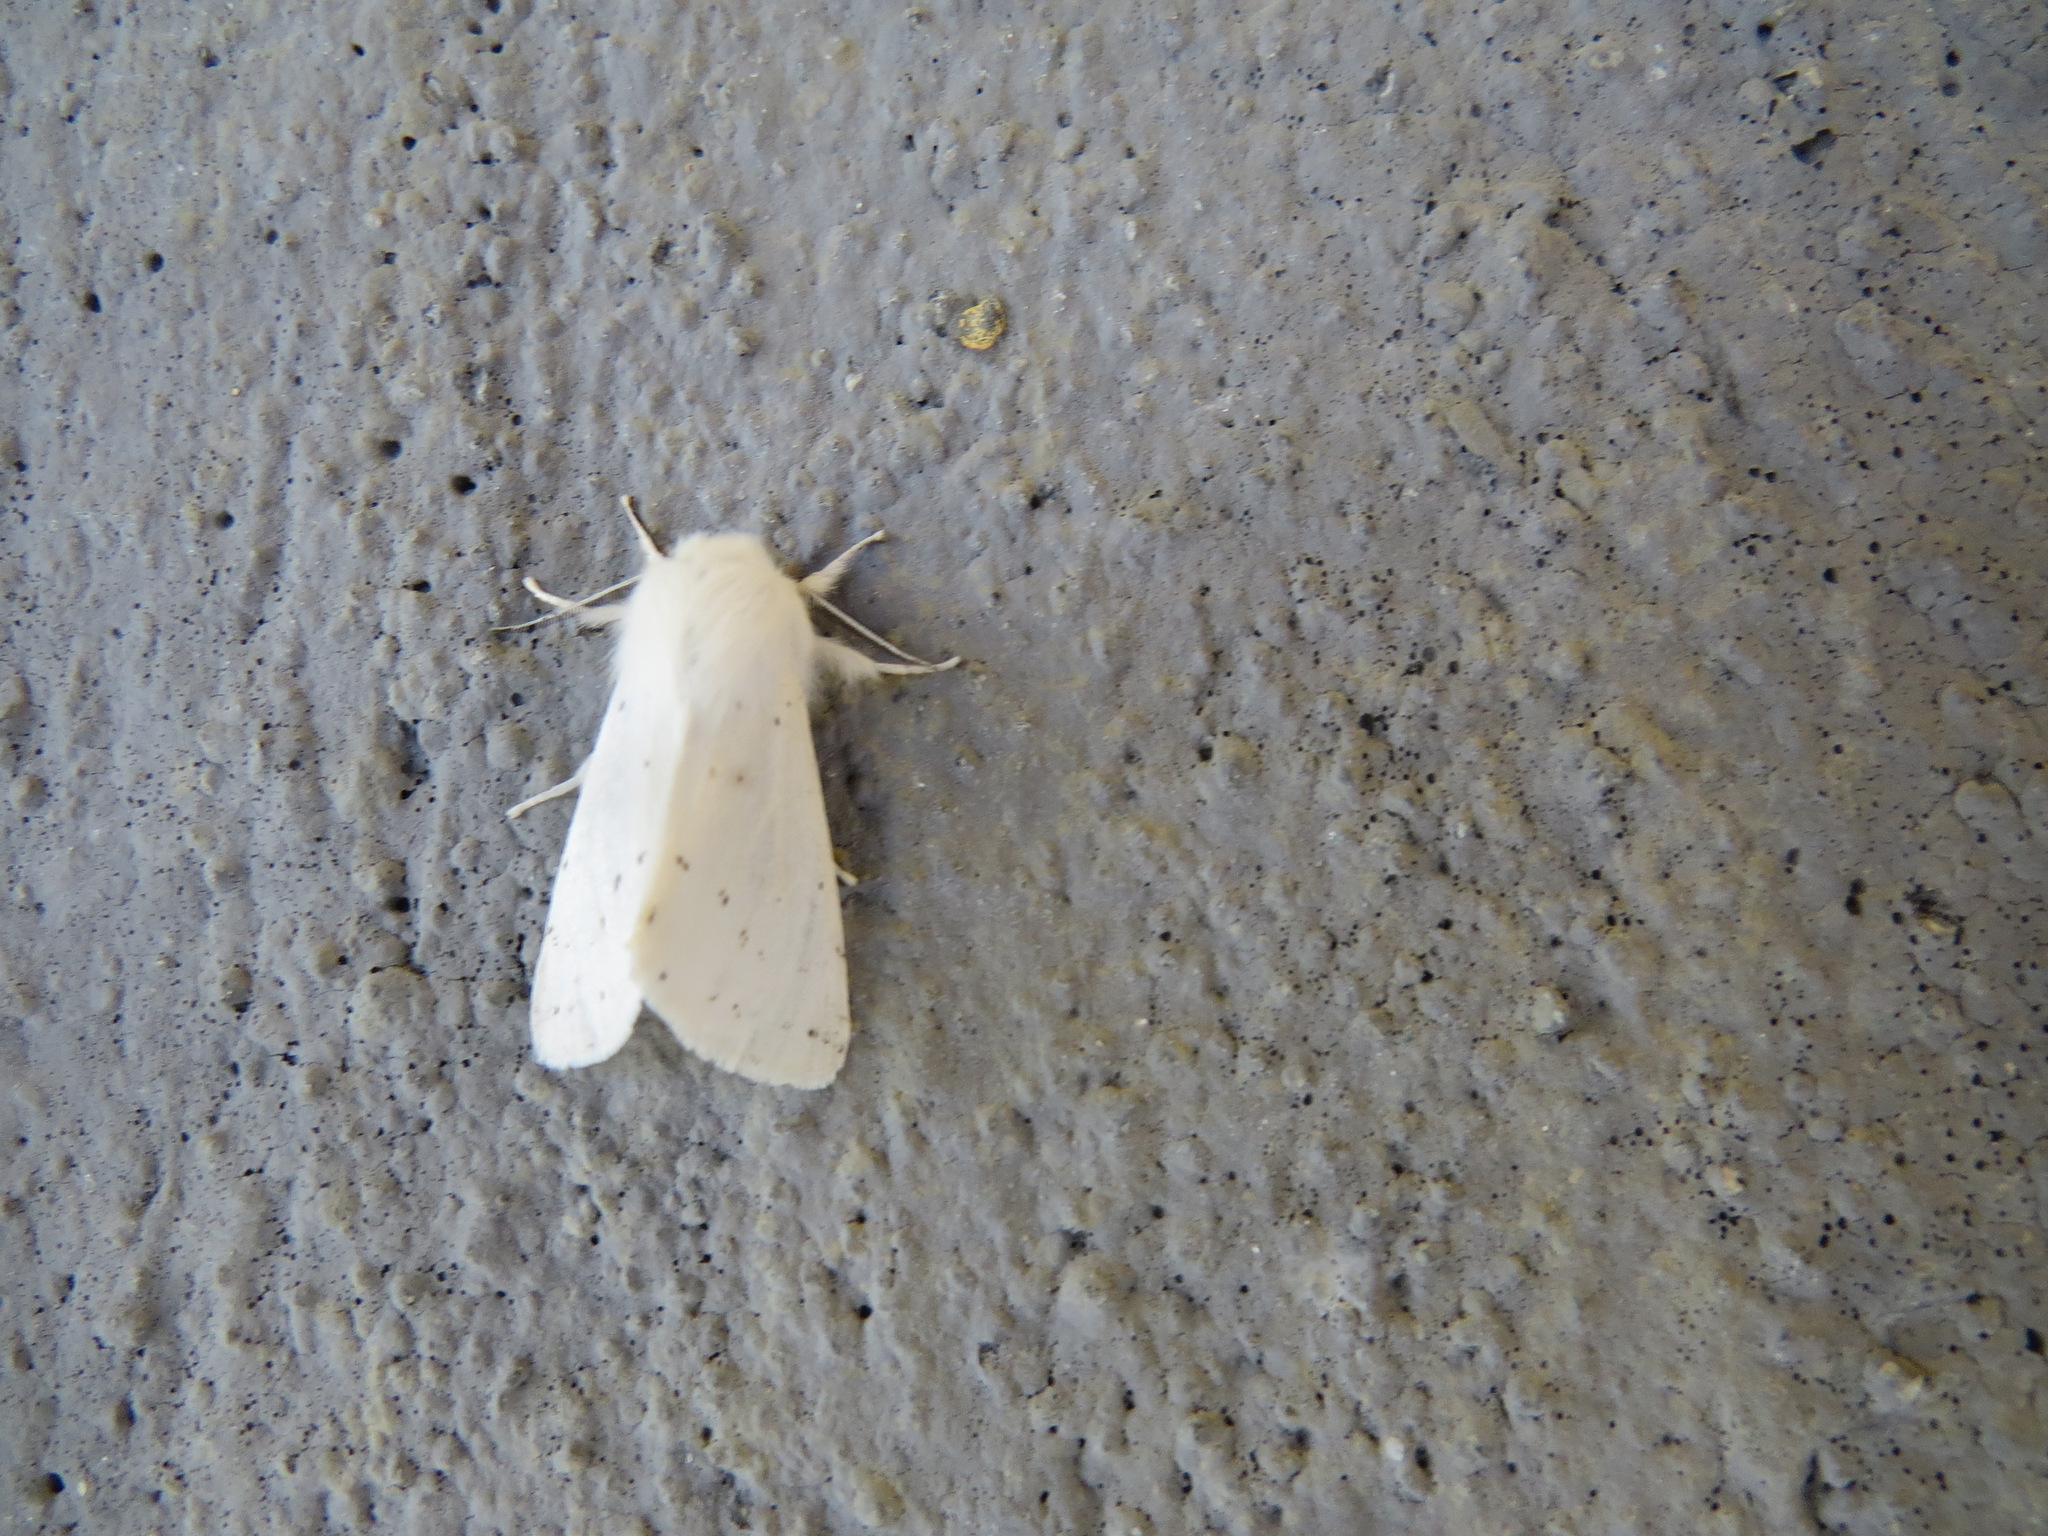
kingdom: Animalia
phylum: Arthropoda
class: Insecta
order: Lepidoptera
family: Erebidae
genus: Spilosoma
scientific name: Spilosoma vestalis
